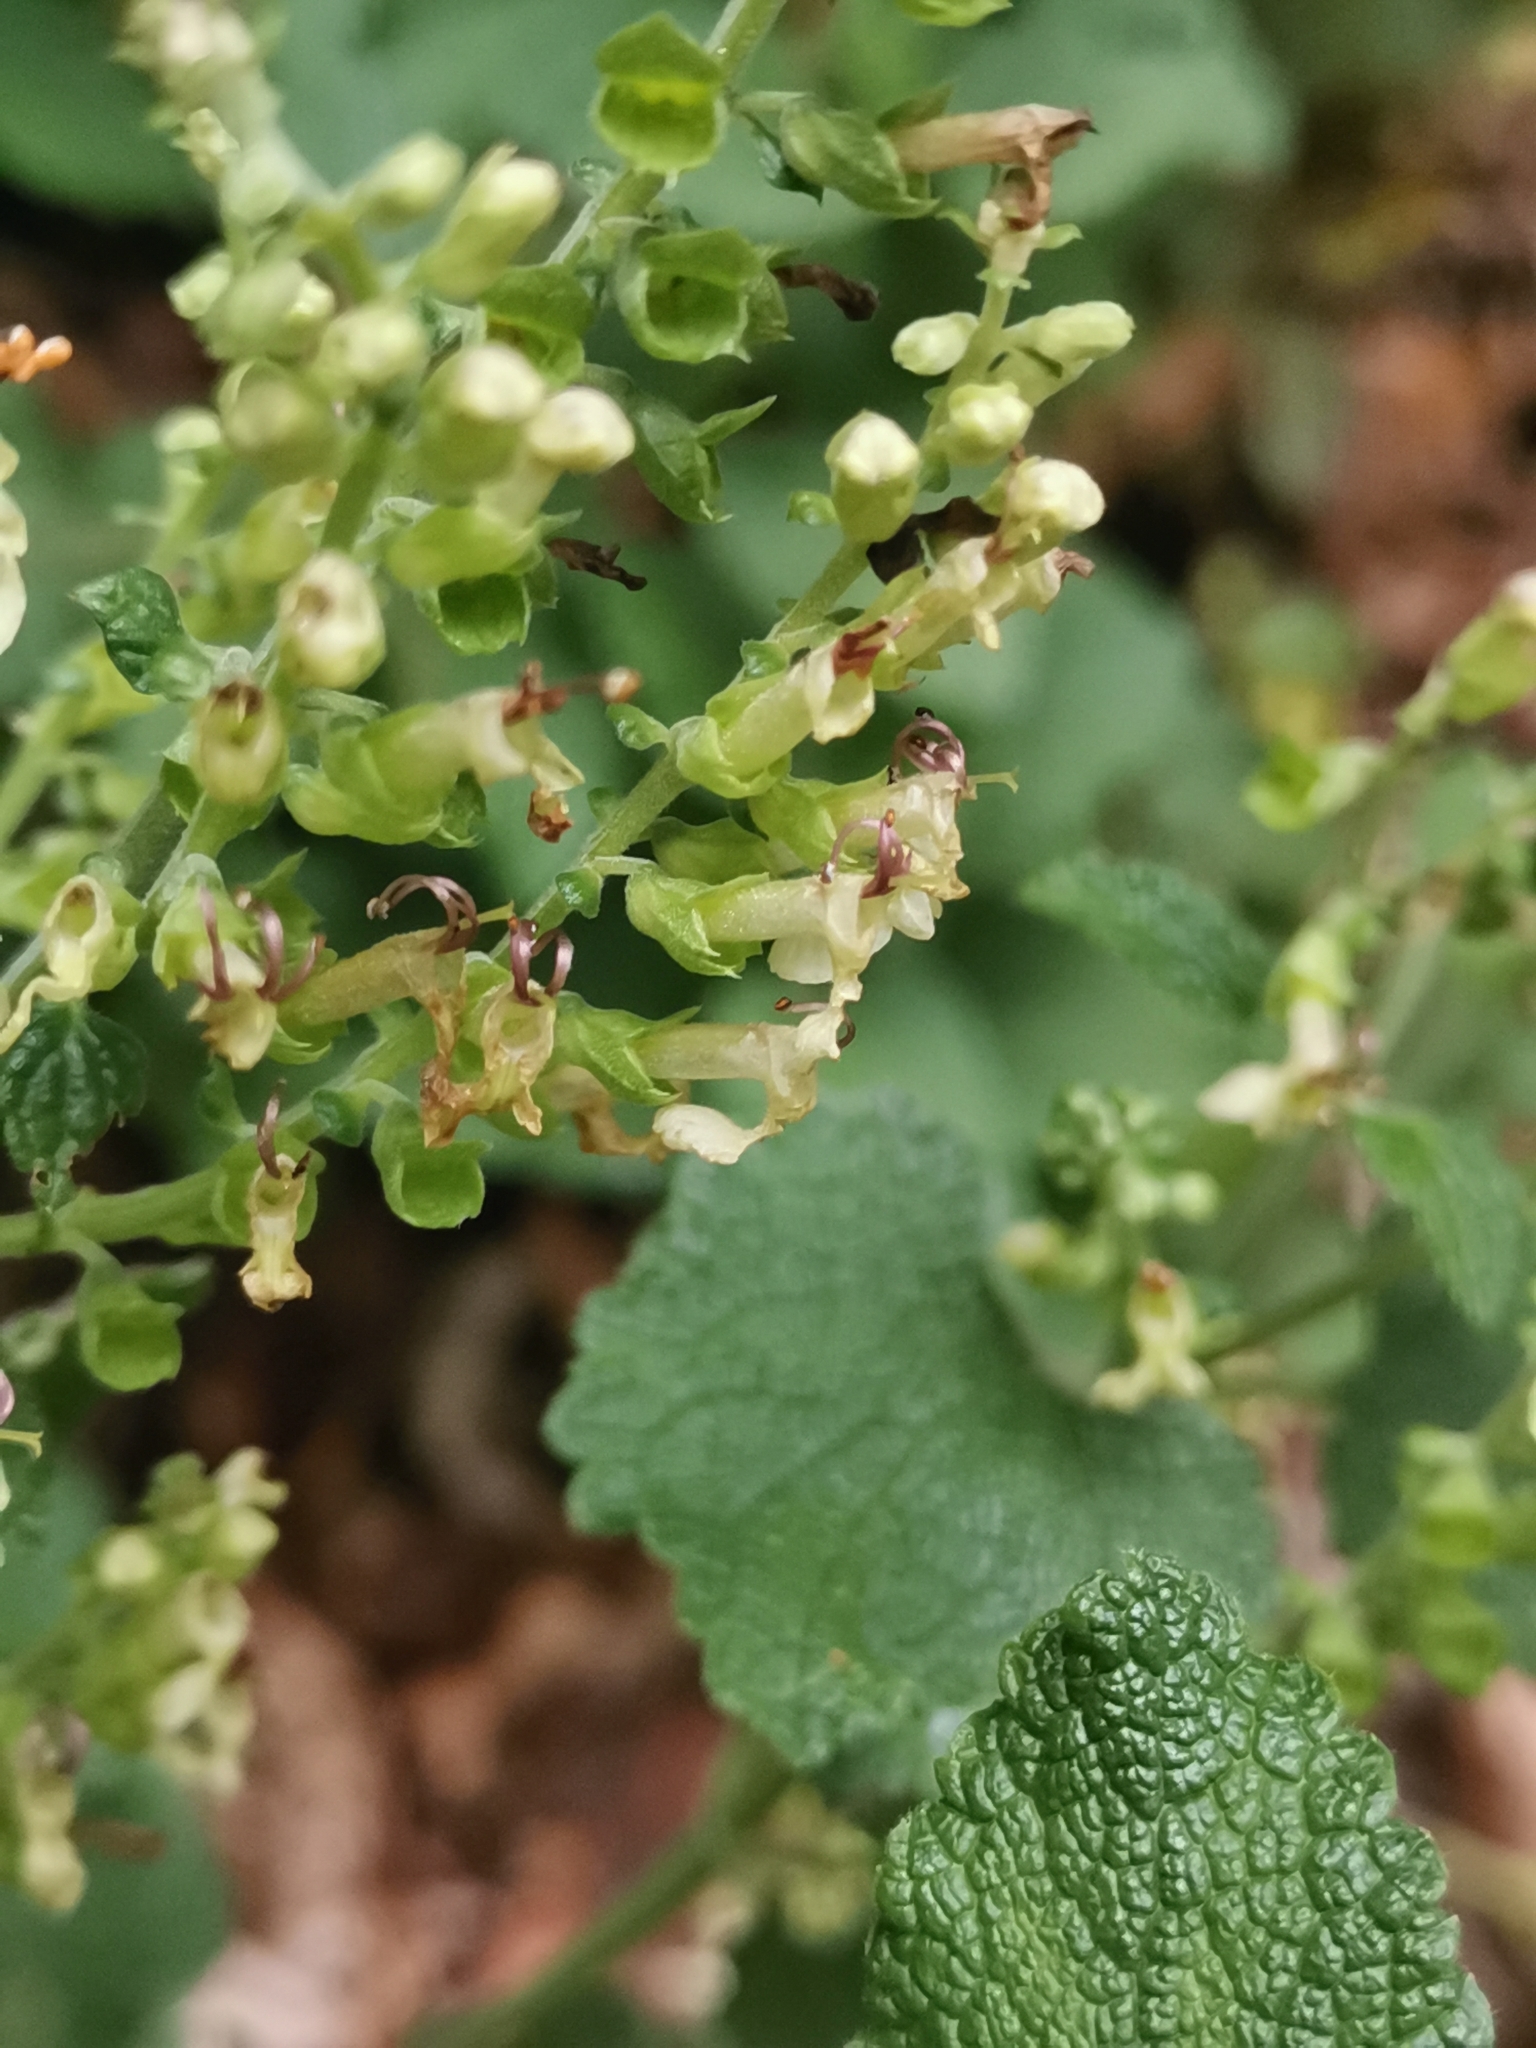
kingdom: Plantae
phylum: Tracheophyta
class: Magnoliopsida
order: Lamiales
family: Lamiaceae
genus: Teucrium
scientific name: Teucrium scorodonia
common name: Woodland germander
